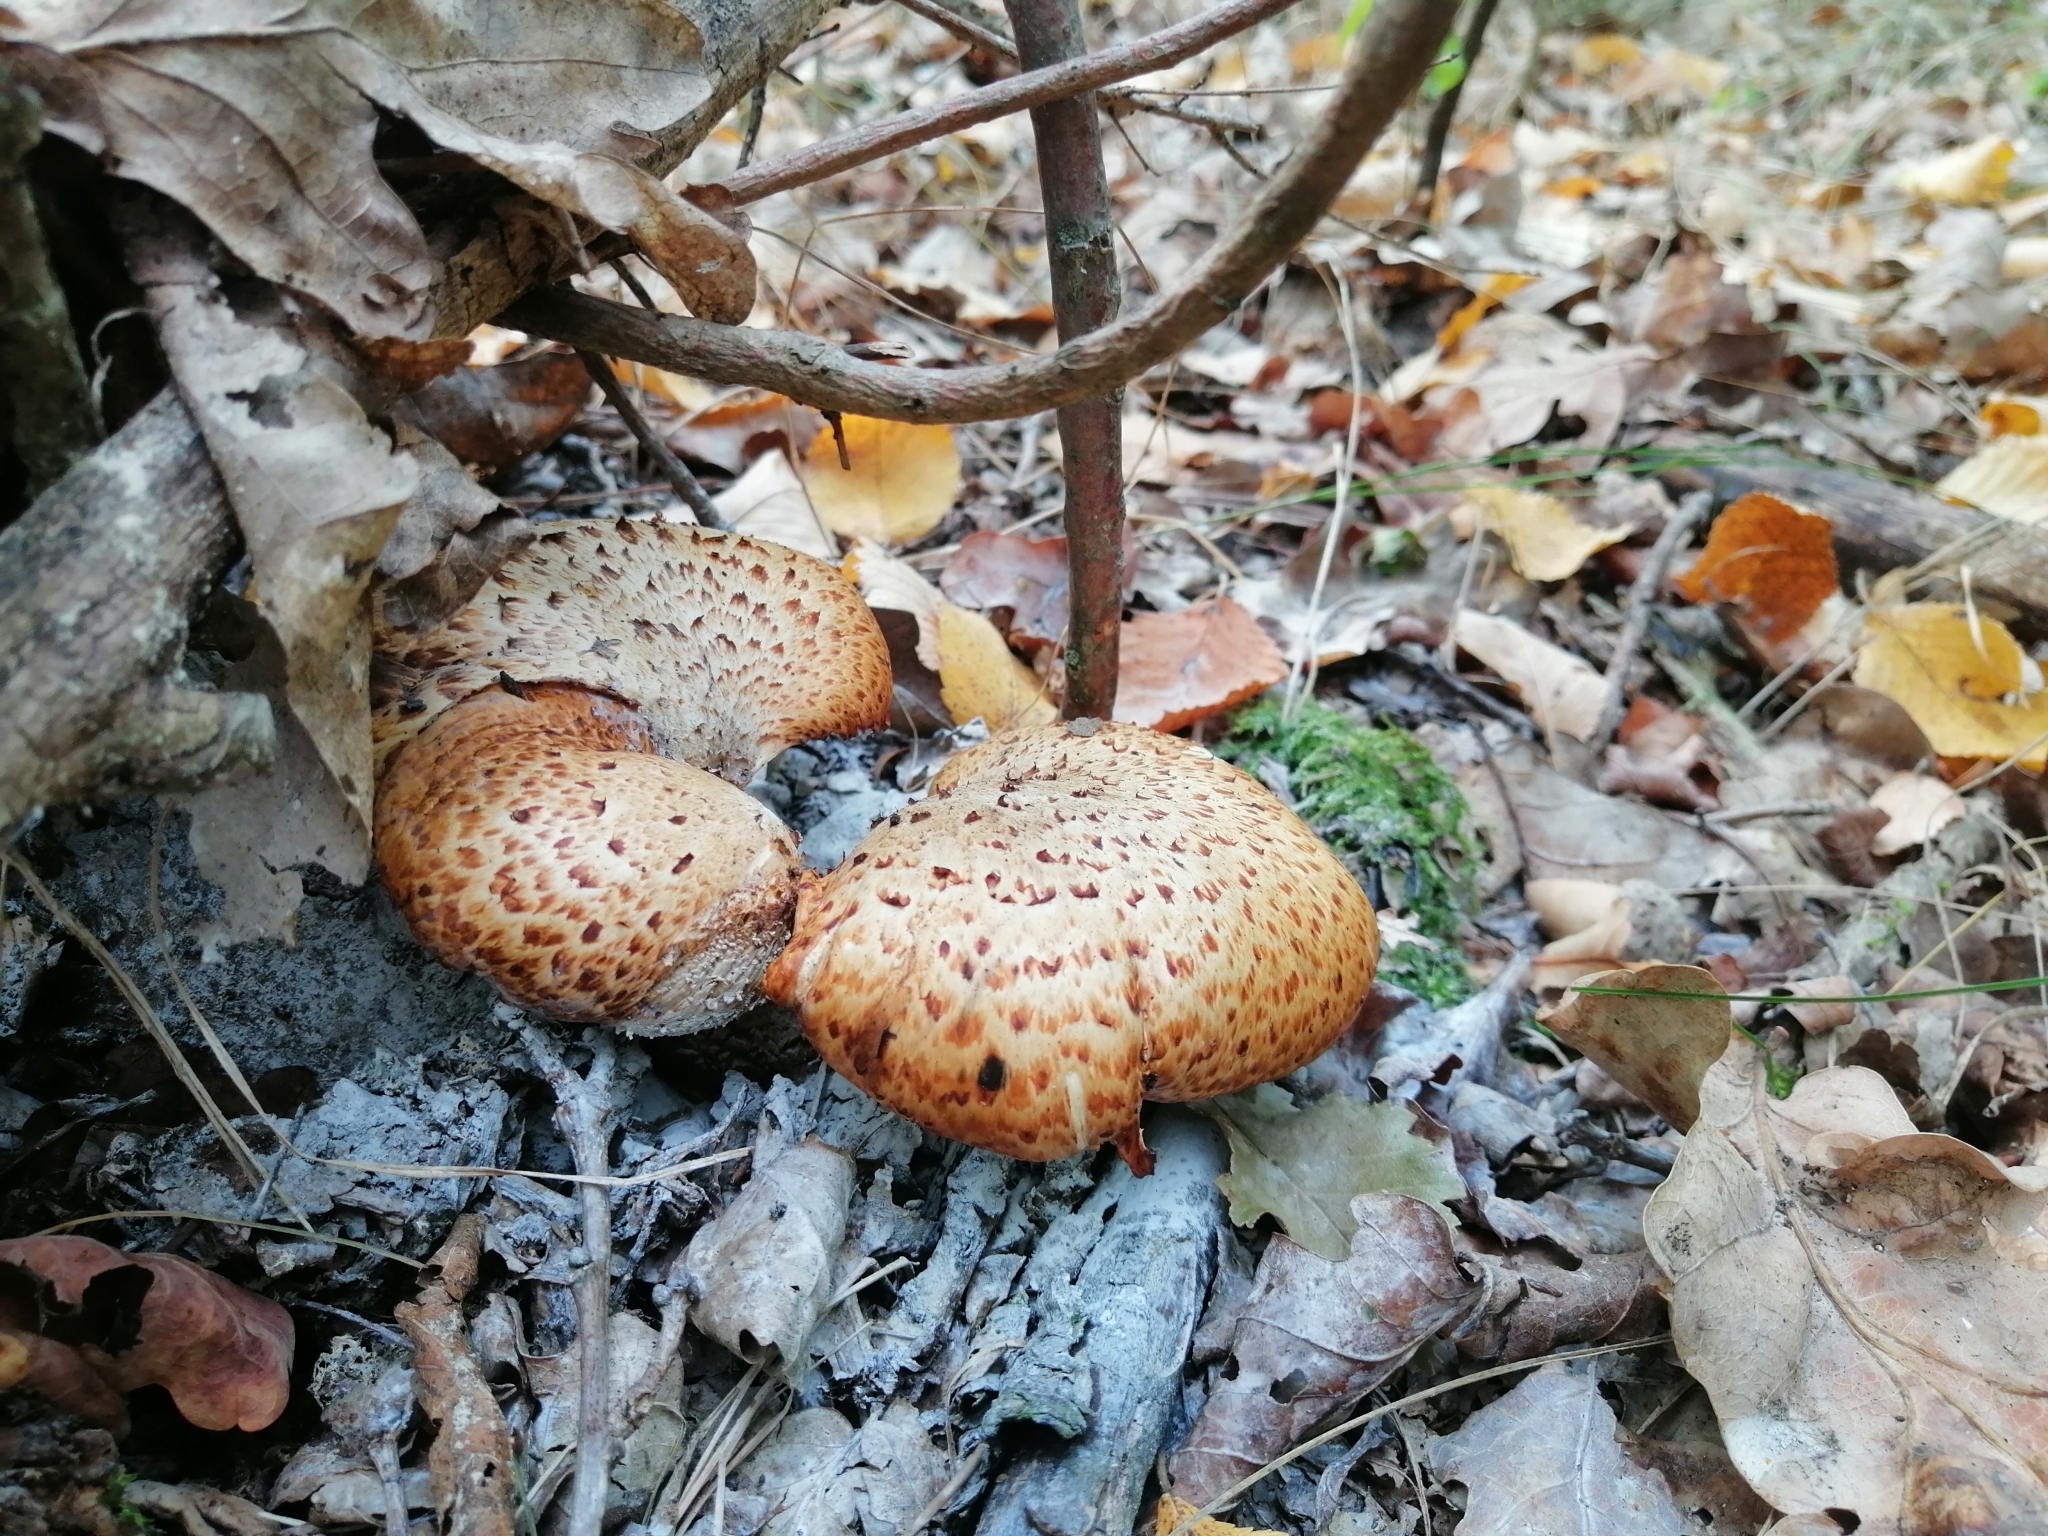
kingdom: Fungi
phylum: Basidiomycota
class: Agaricomycetes
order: Polyporales
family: Polyporaceae
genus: Cerioporus
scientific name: Cerioporus squamosus
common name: Dryad's saddle
